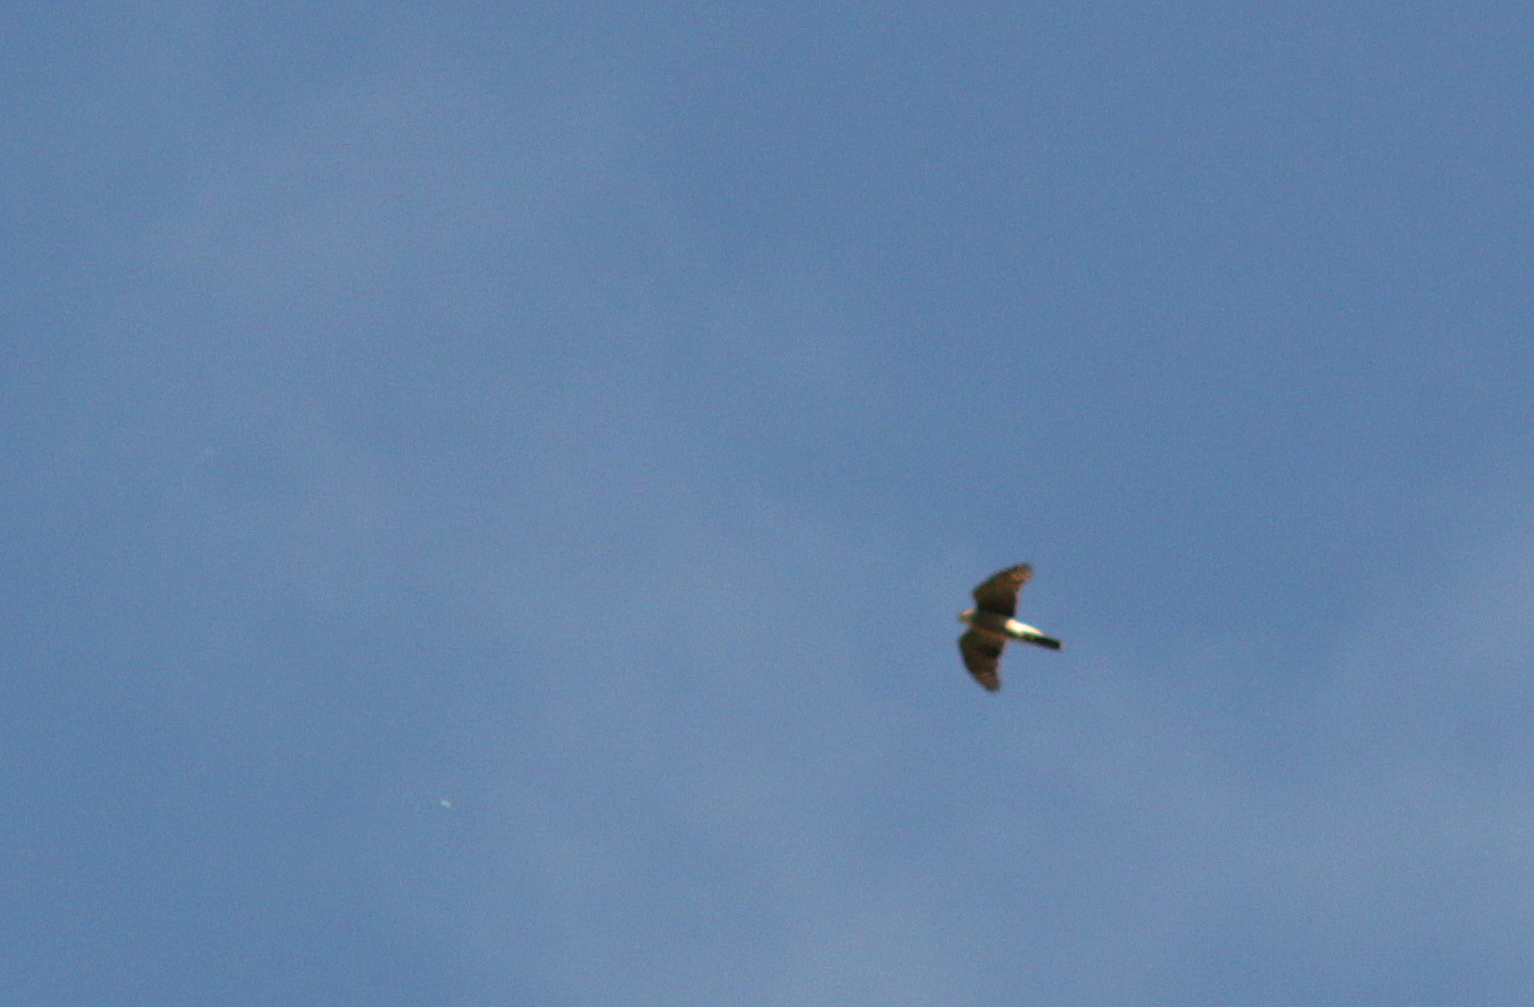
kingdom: Animalia
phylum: Chordata
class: Aves
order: Accipitriformes
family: Accipitridae
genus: Accipiter
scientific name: Accipiter gentilis
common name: Northern goshawk
